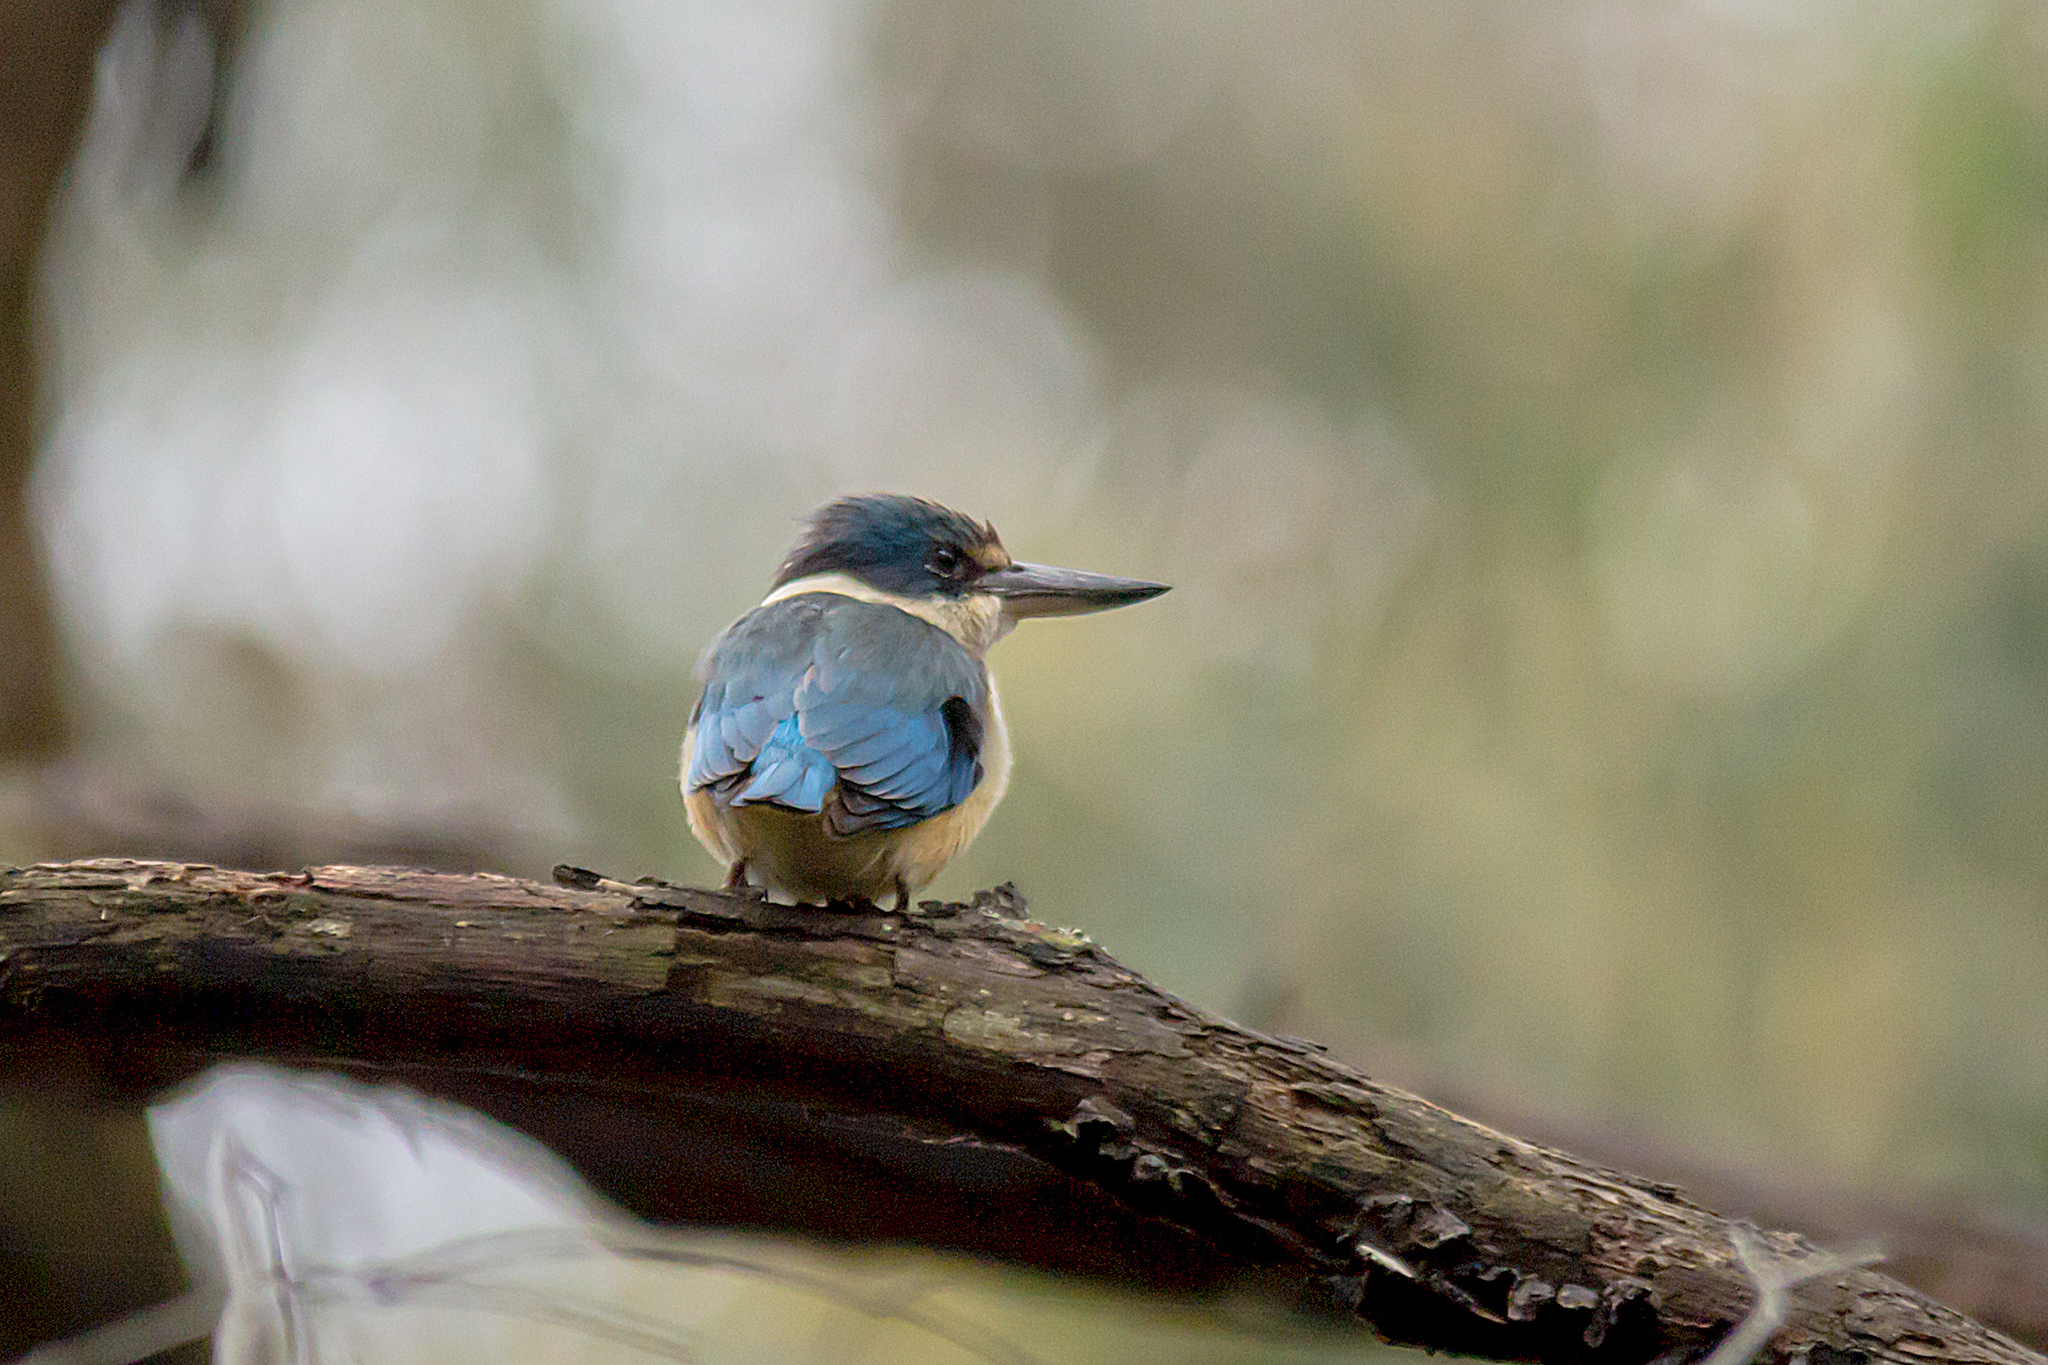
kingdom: Animalia
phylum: Chordata
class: Aves
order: Coraciiformes
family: Alcedinidae
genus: Todiramphus
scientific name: Todiramphus sanctus
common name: Sacred kingfisher
